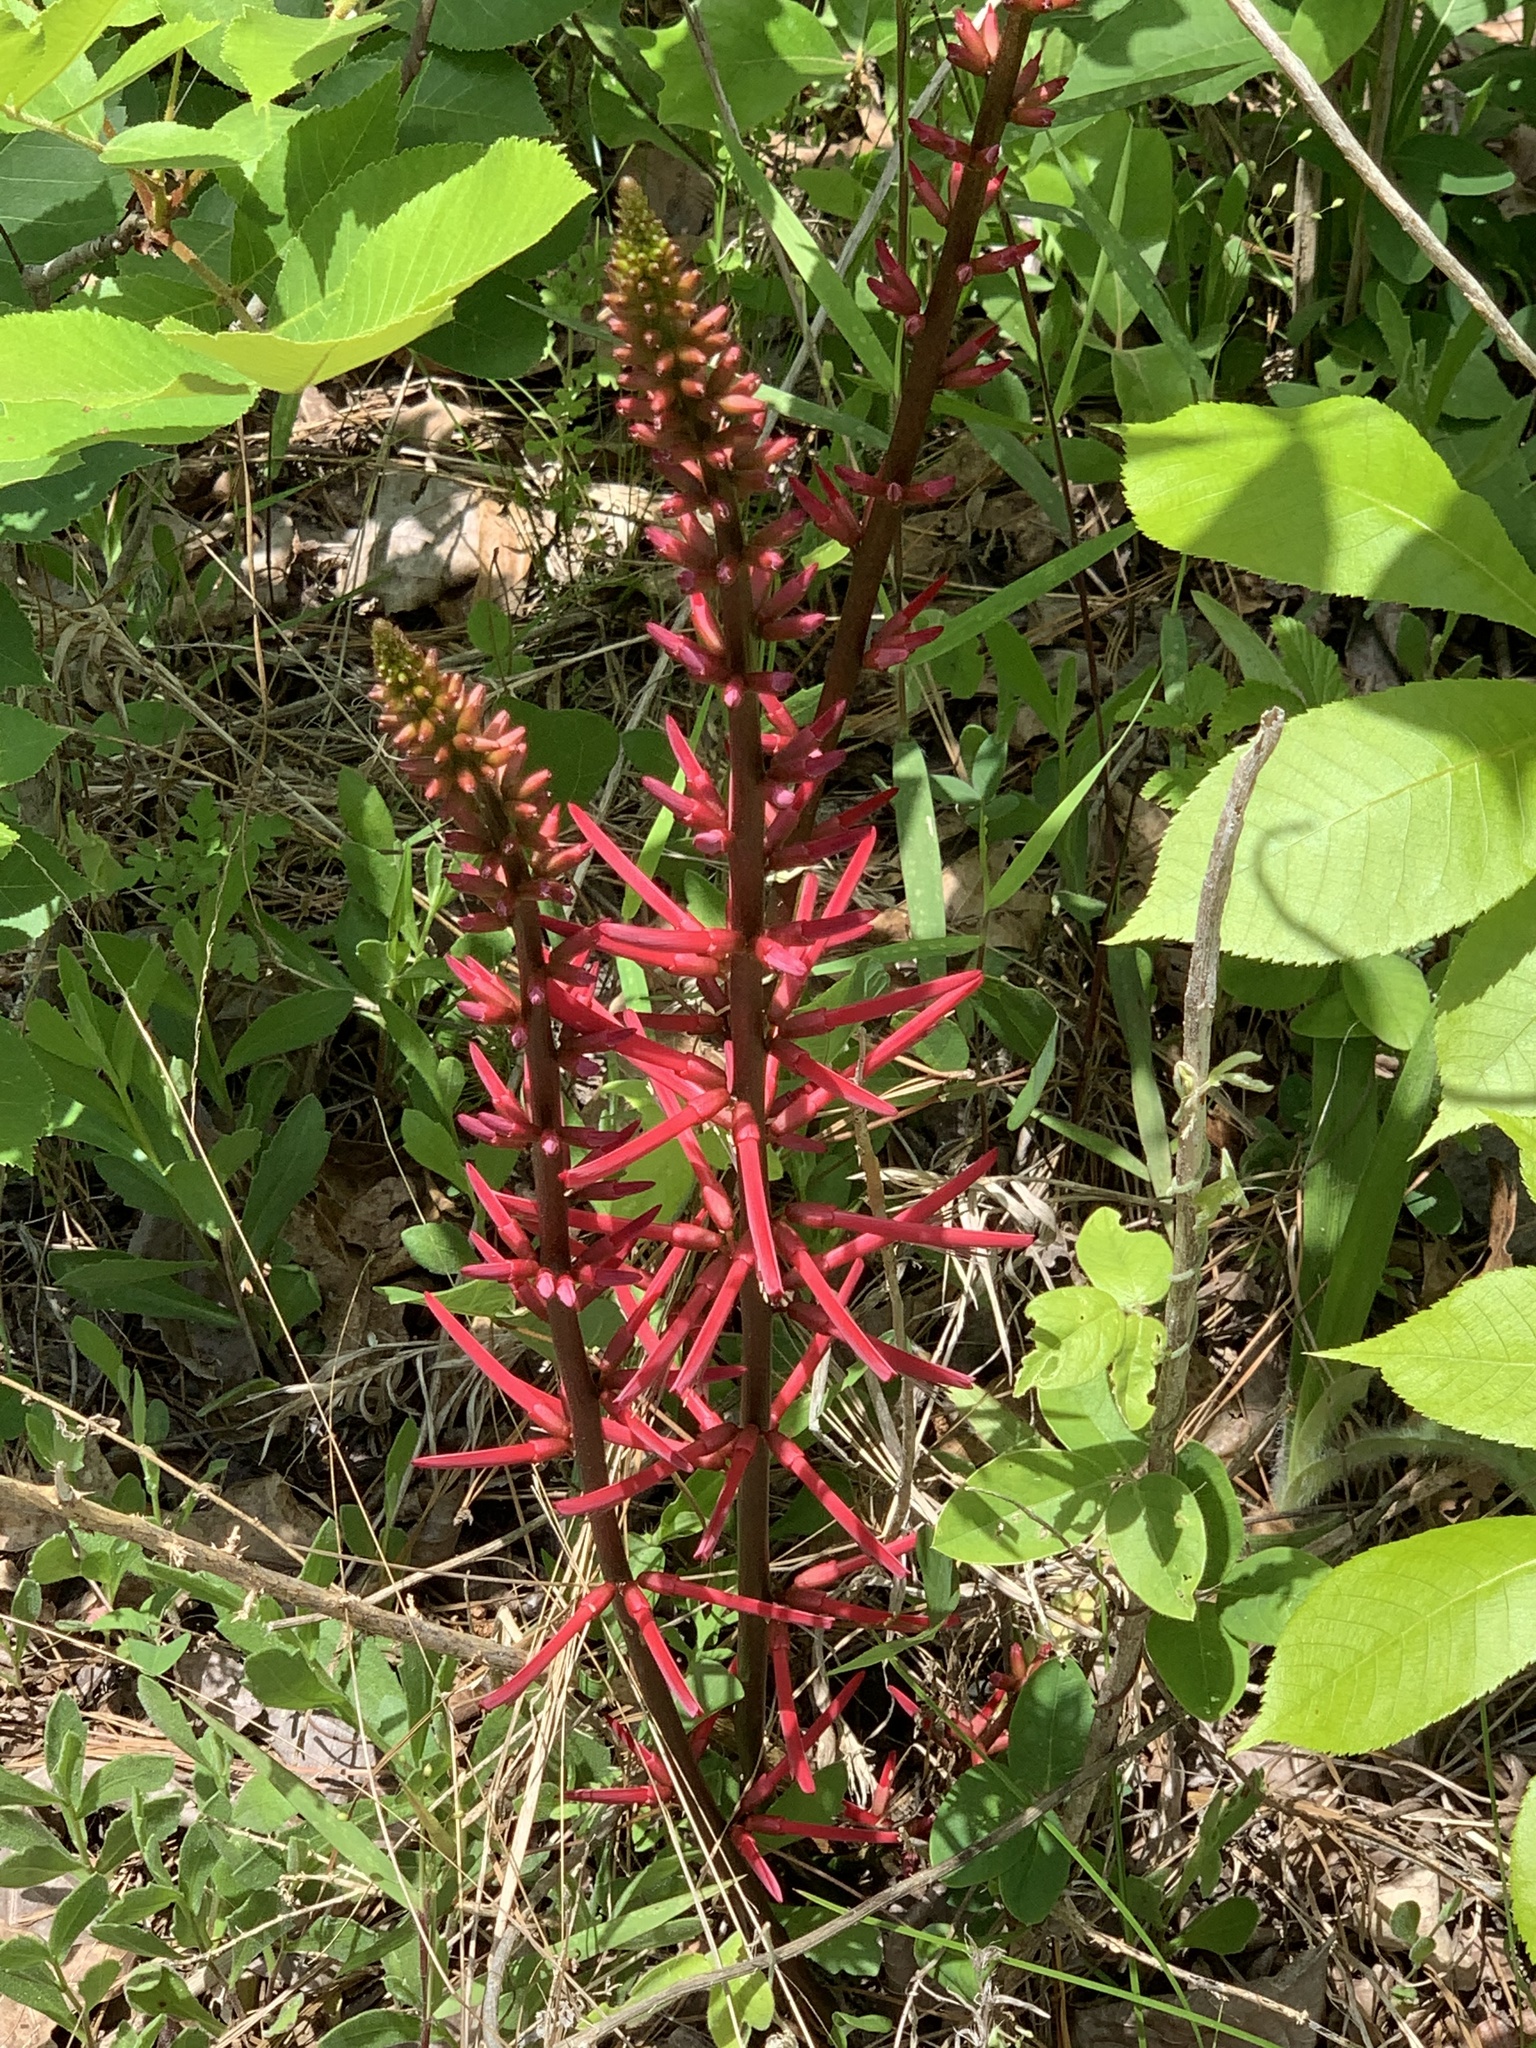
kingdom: Plantae
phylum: Tracheophyta
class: Magnoliopsida
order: Fabales
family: Fabaceae
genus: Erythrina
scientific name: Erythrina herbacea
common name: Coral-bean
